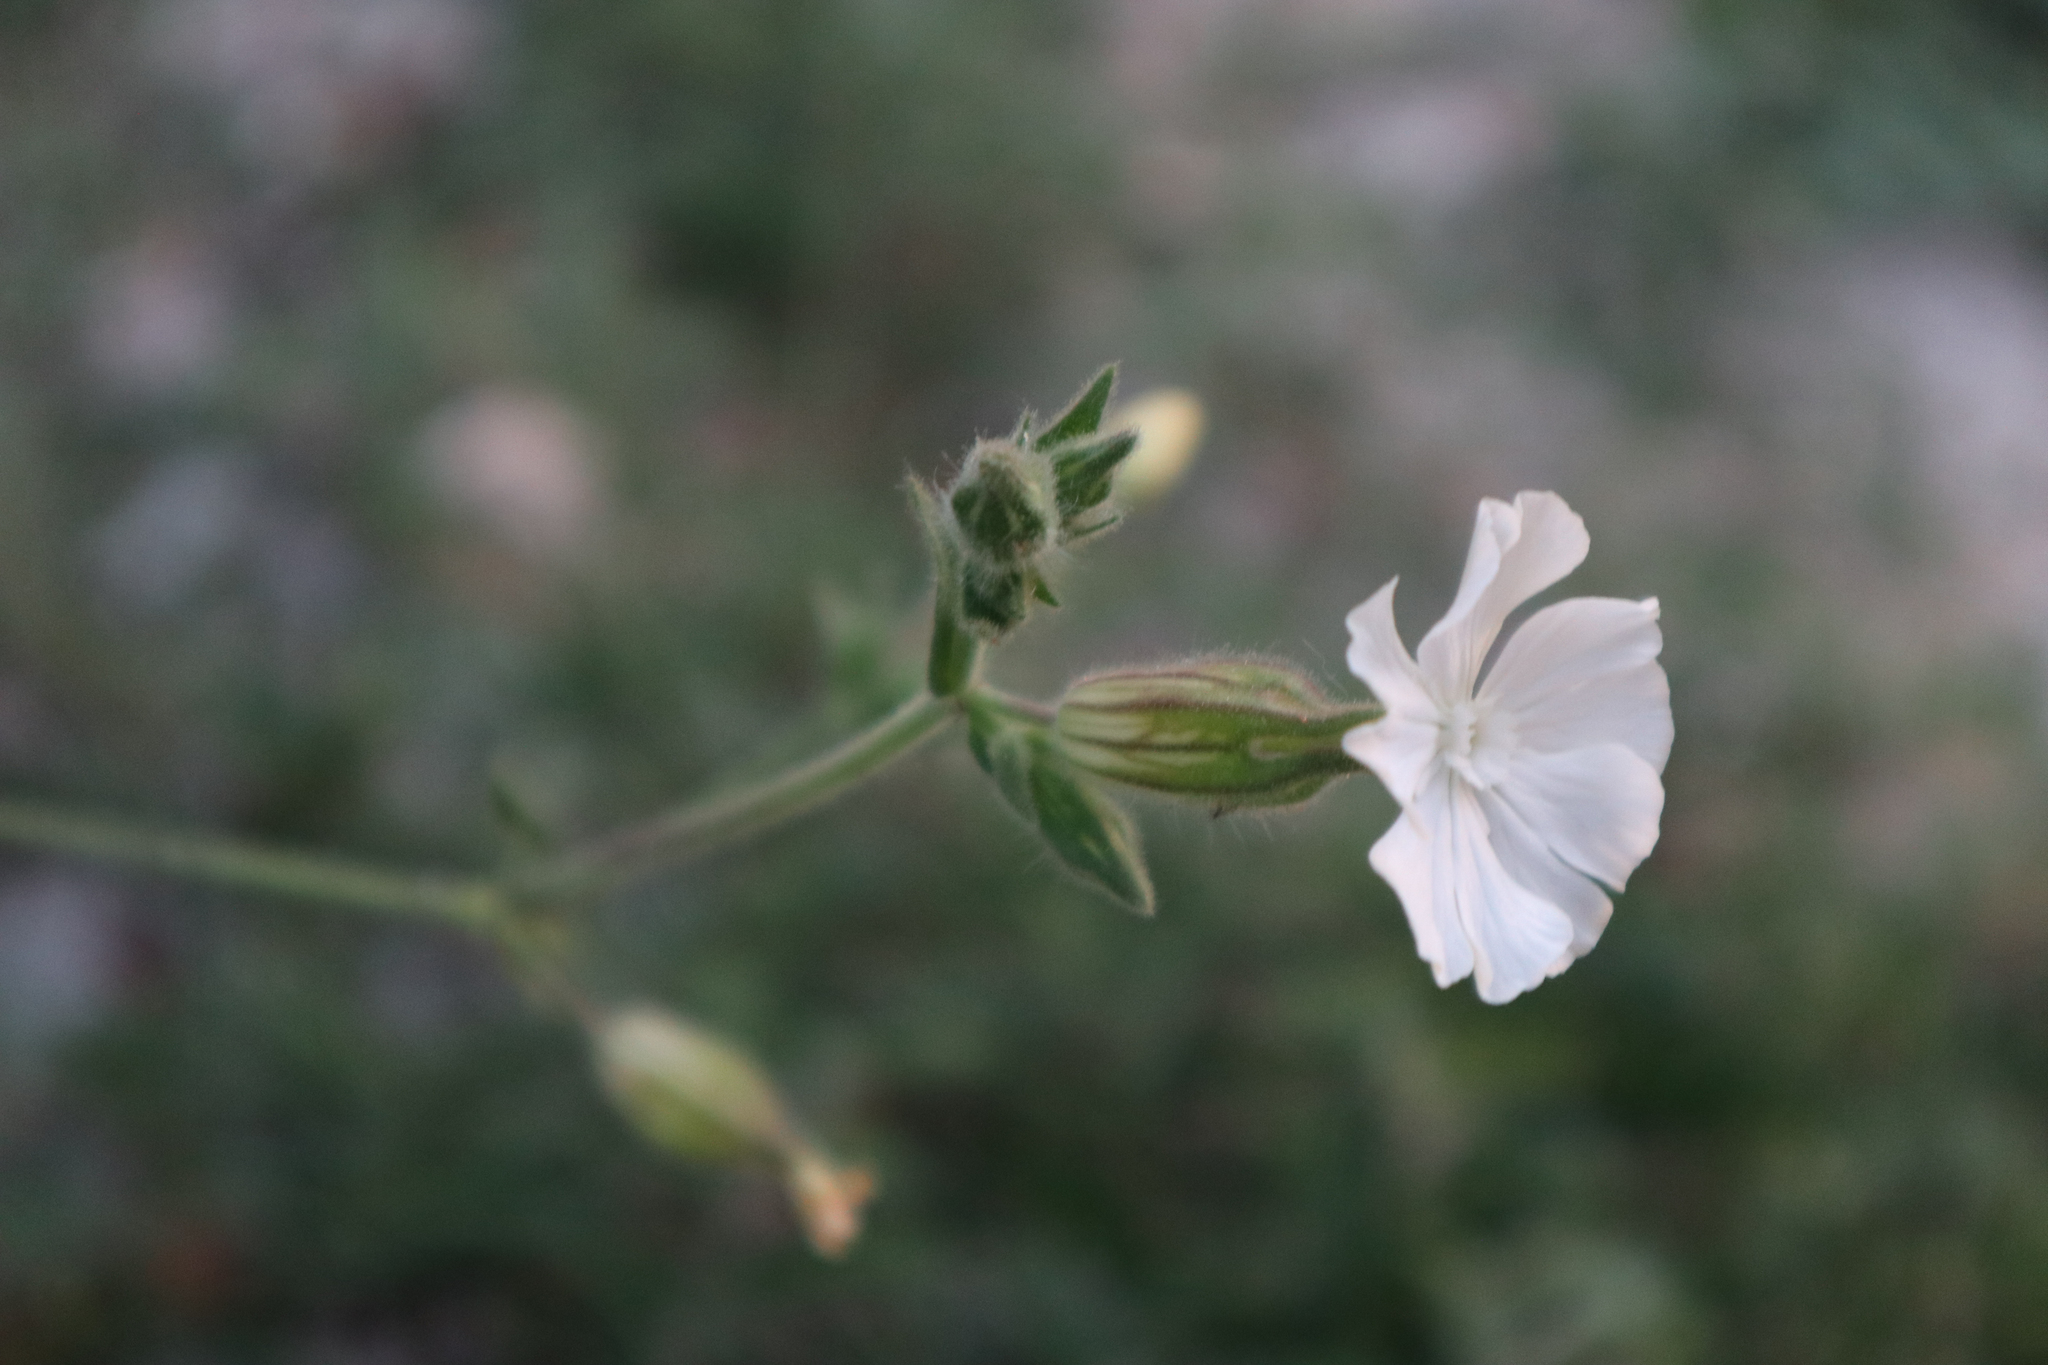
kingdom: Plantae
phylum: Tracheophyta
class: Magnoliopsida
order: Caryophyllales
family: Caryophyllaceae
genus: Silene
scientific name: Silene latifolia
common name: White campion
